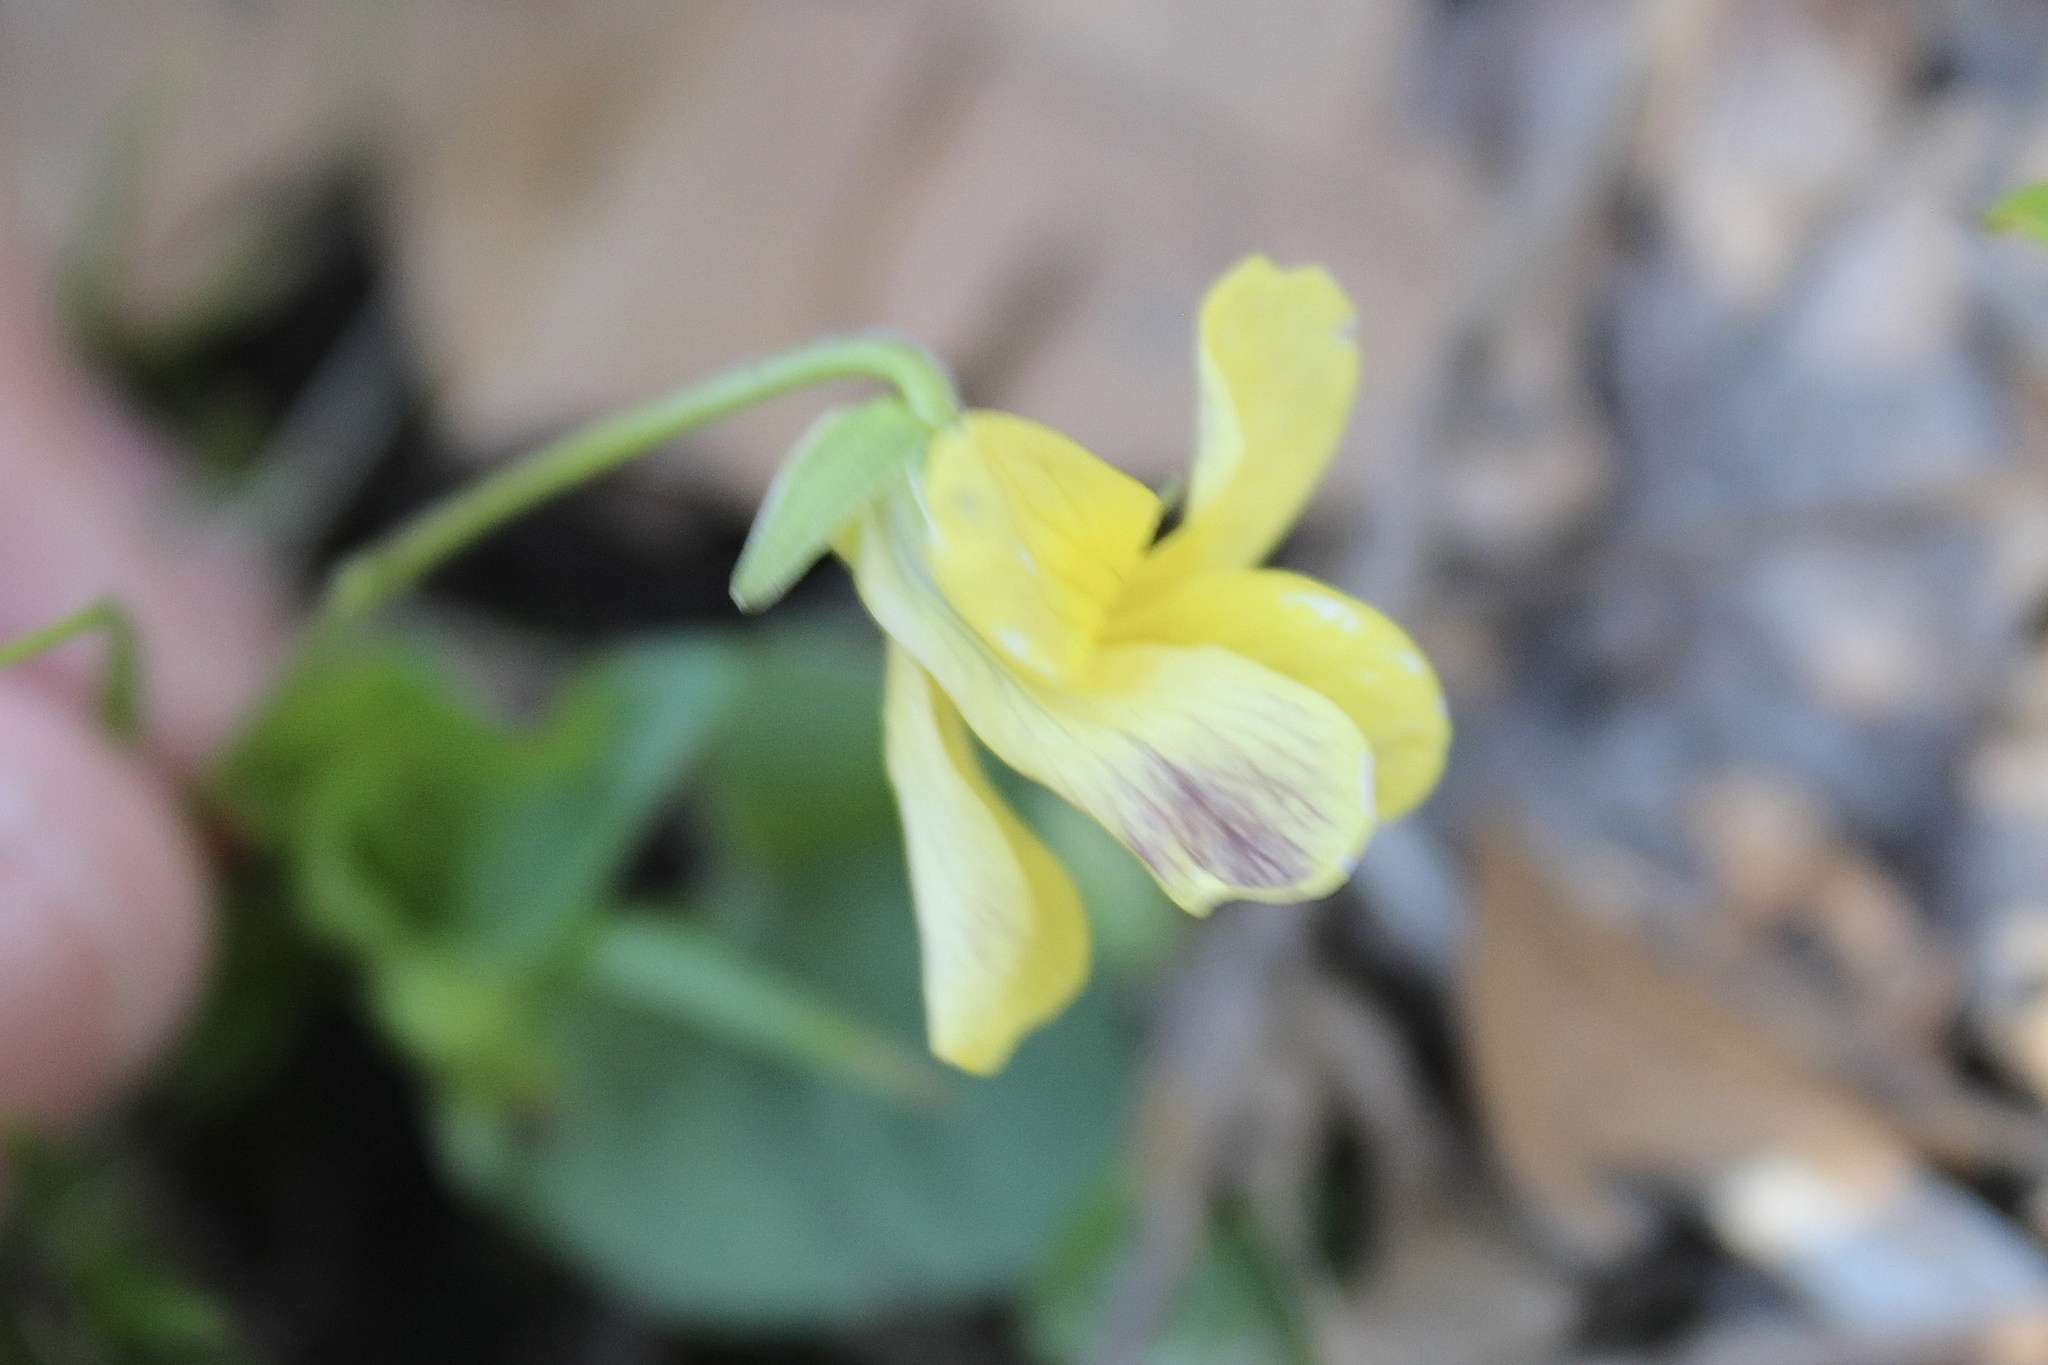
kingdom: Plantae
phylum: Tracheophyta
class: Magnoliopsida
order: Malpighiales
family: Violaceae
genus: Viola
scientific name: Viola eriocarpa
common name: Smooth yellow violet
